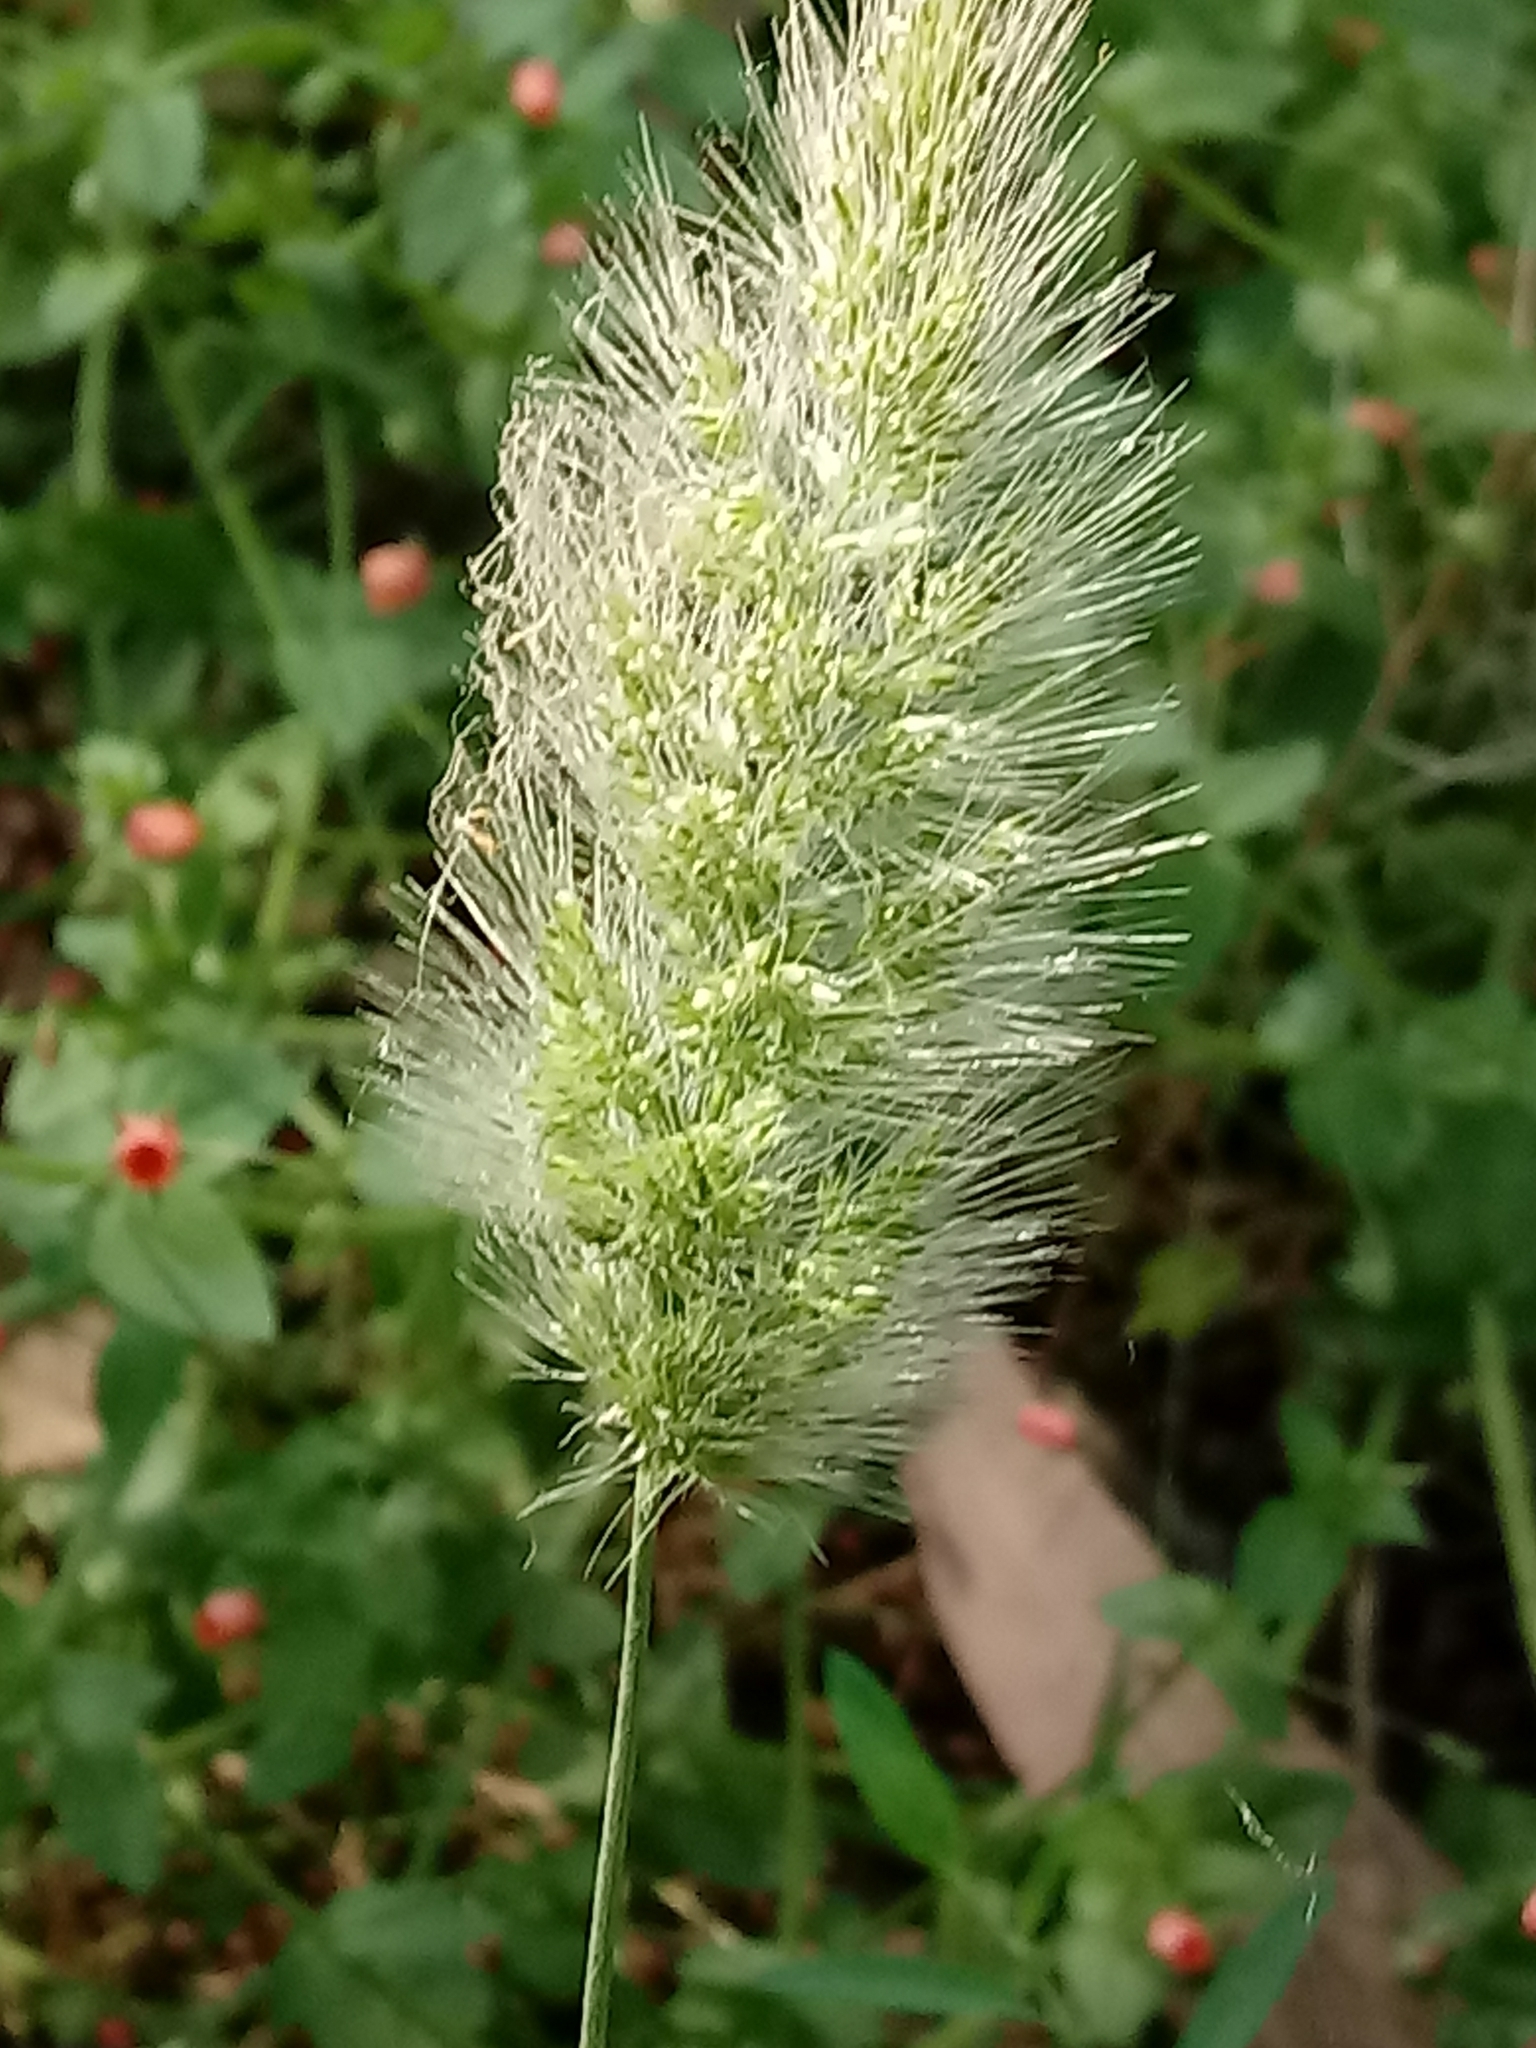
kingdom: Plantae
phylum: Tracheophyta
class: Liliopsida
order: Poales
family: Poaceae
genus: Polypogon
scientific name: Polypogon monspeliensis
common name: Annual rabbitsfoot grass
